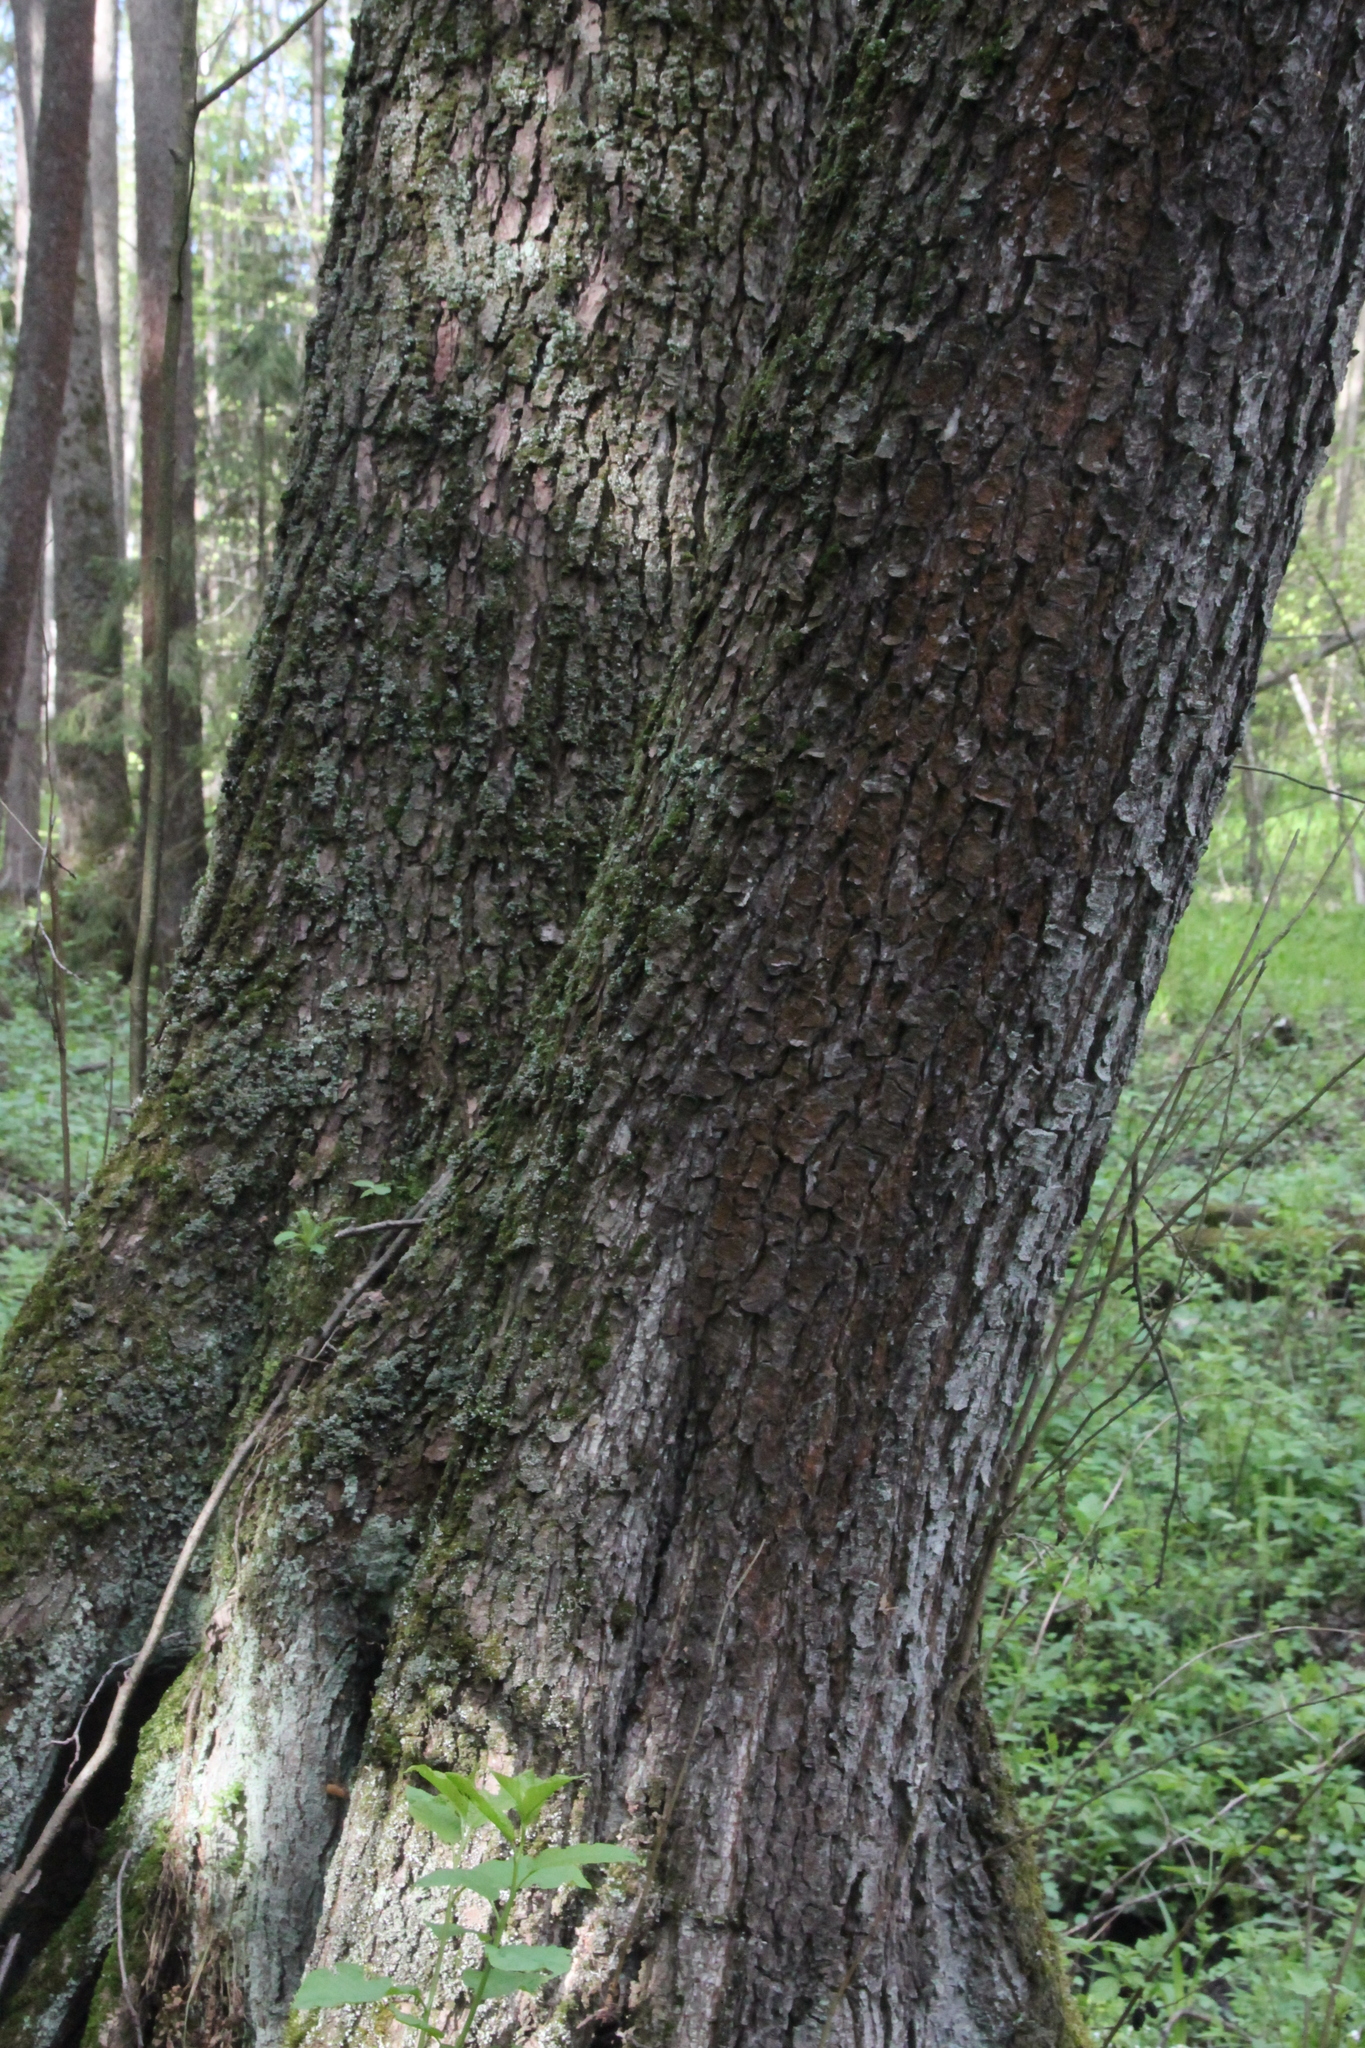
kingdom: Plantae
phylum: Tracheophyta
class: Magnoliopsida
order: Fagales
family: Betulaceae
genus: Alnus
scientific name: Alnus glutinosa
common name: Black alder
